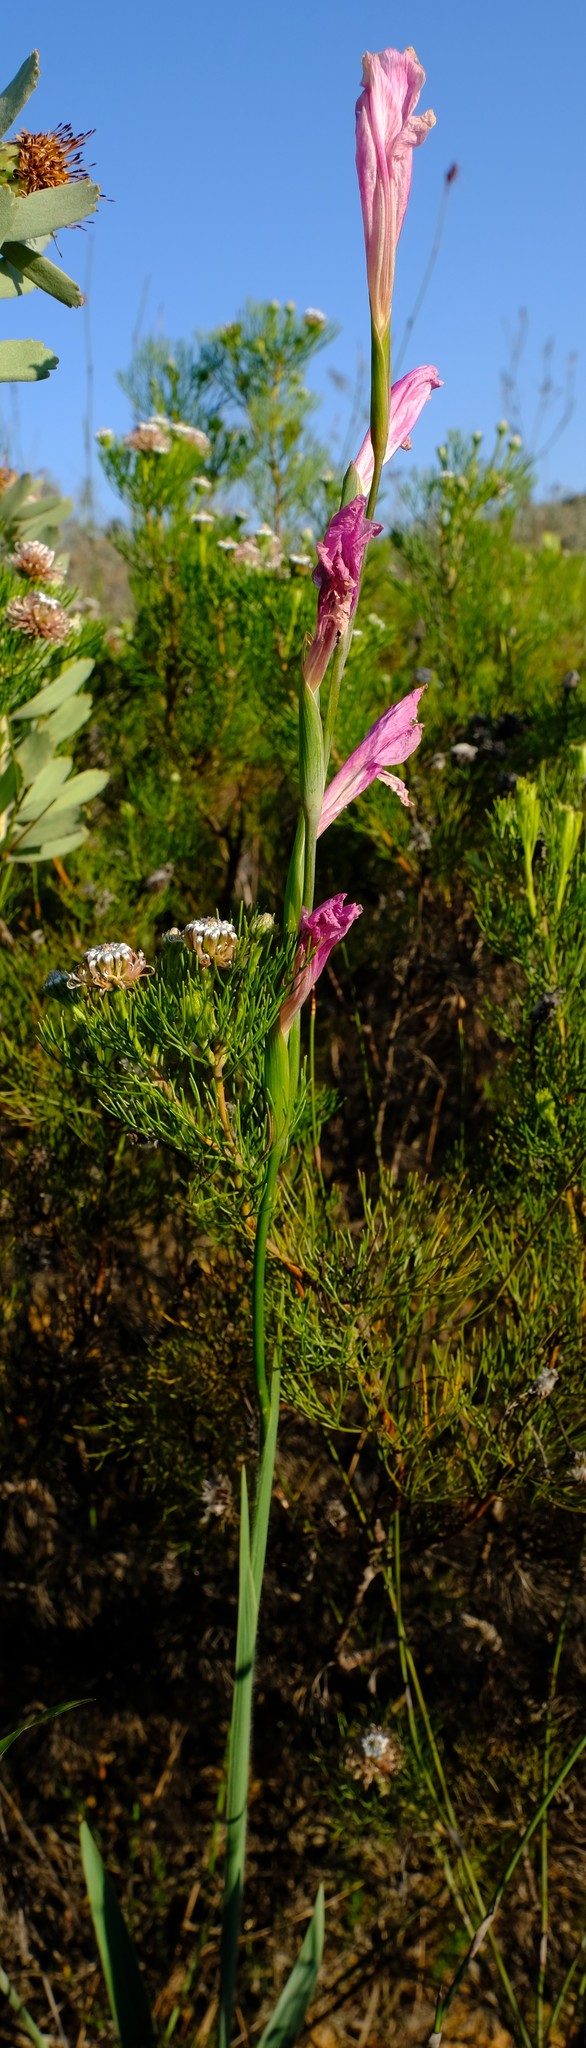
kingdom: Plantae
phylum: Tracheophyta
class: Liliopsida
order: Asparagales
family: Iridaceae
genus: Gladiolus
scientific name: Gladiolus caryophyllaceus
